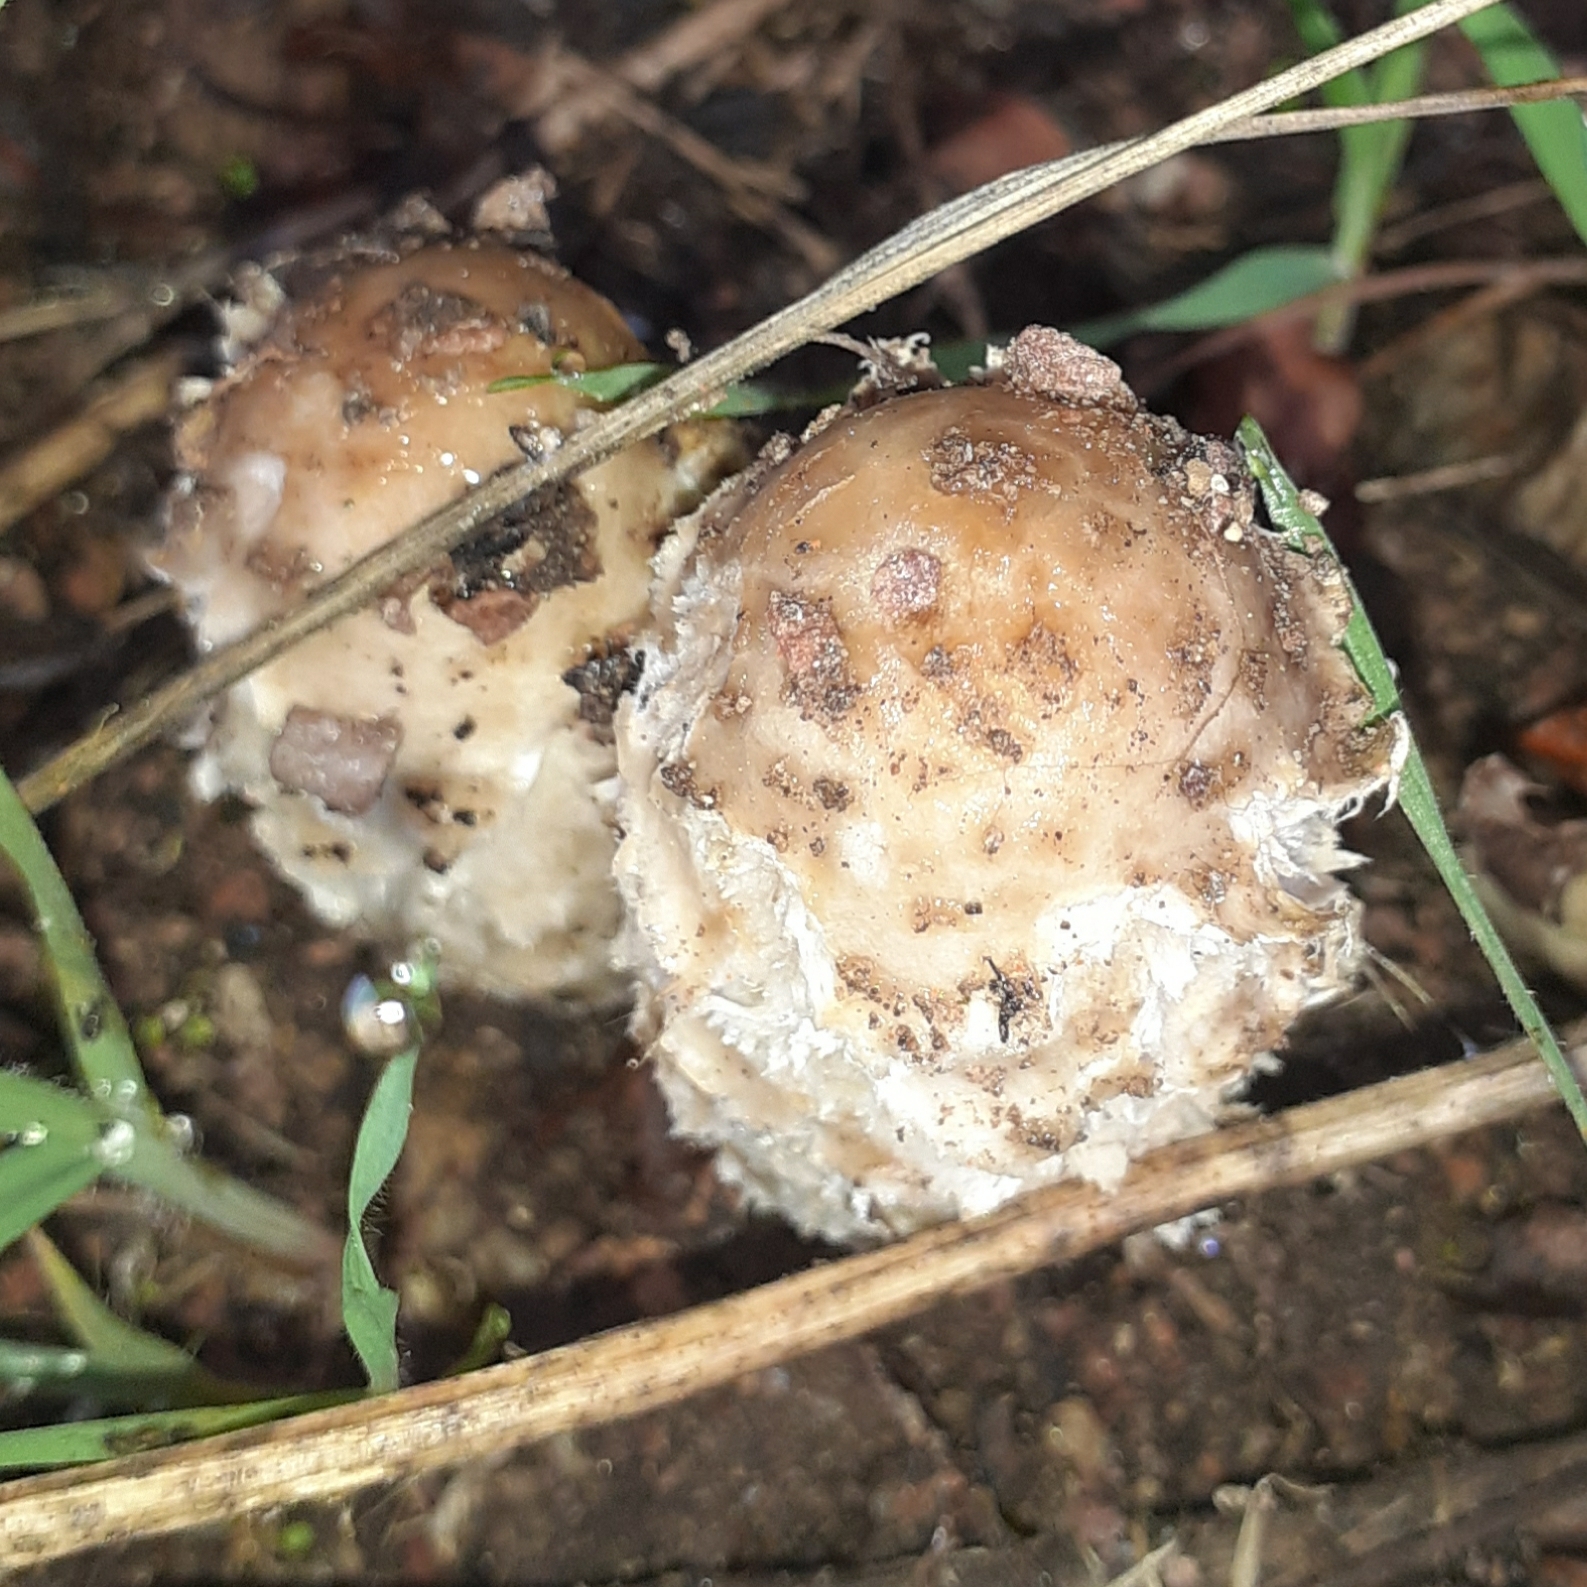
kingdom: Fungi
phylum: Basidiomycota
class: Agaricomycetes
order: Agaricales
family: Agaricaceae
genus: Coprinus
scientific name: Coprinus comatus
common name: Lawyer's wig
